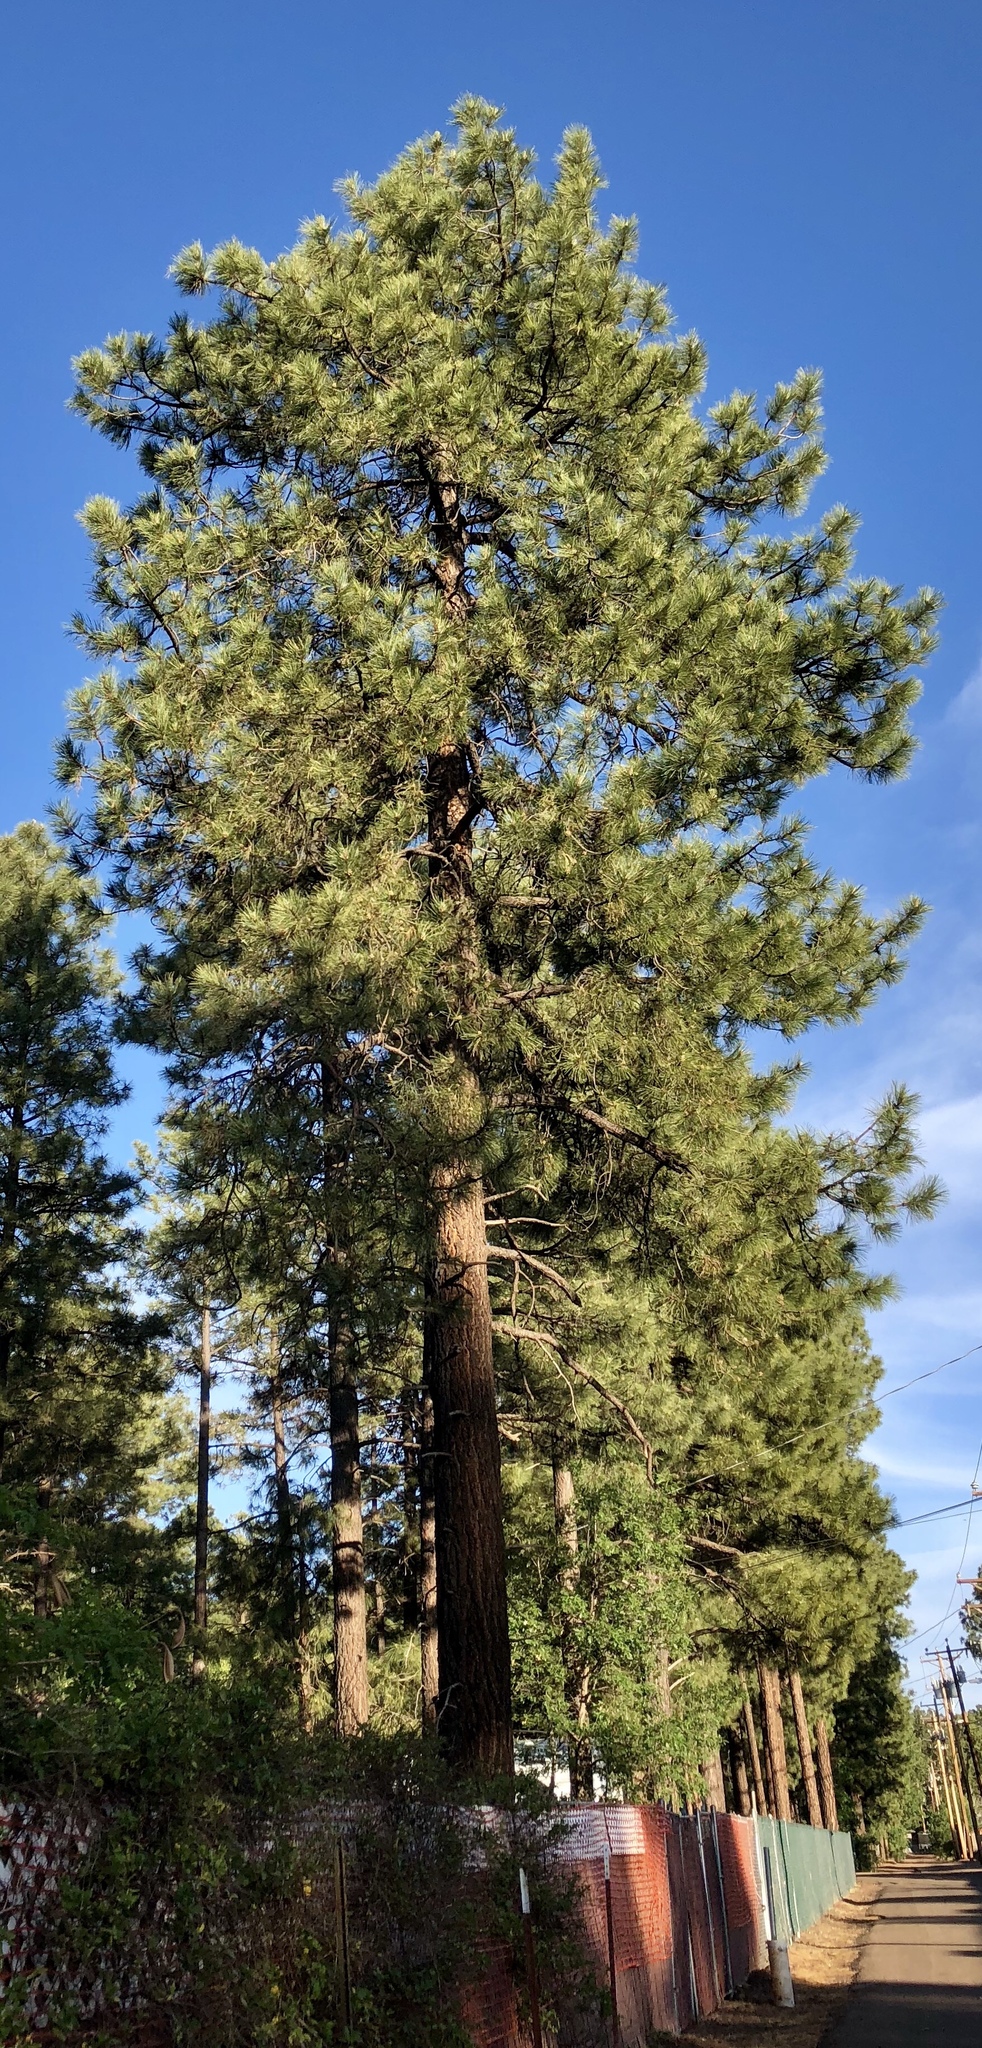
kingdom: Plantae
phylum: Tracheophyta
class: Pinopsida
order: Pinales
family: Pinaceae
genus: Pinus
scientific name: Pinus ponderosa
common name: Western yellow-pine
